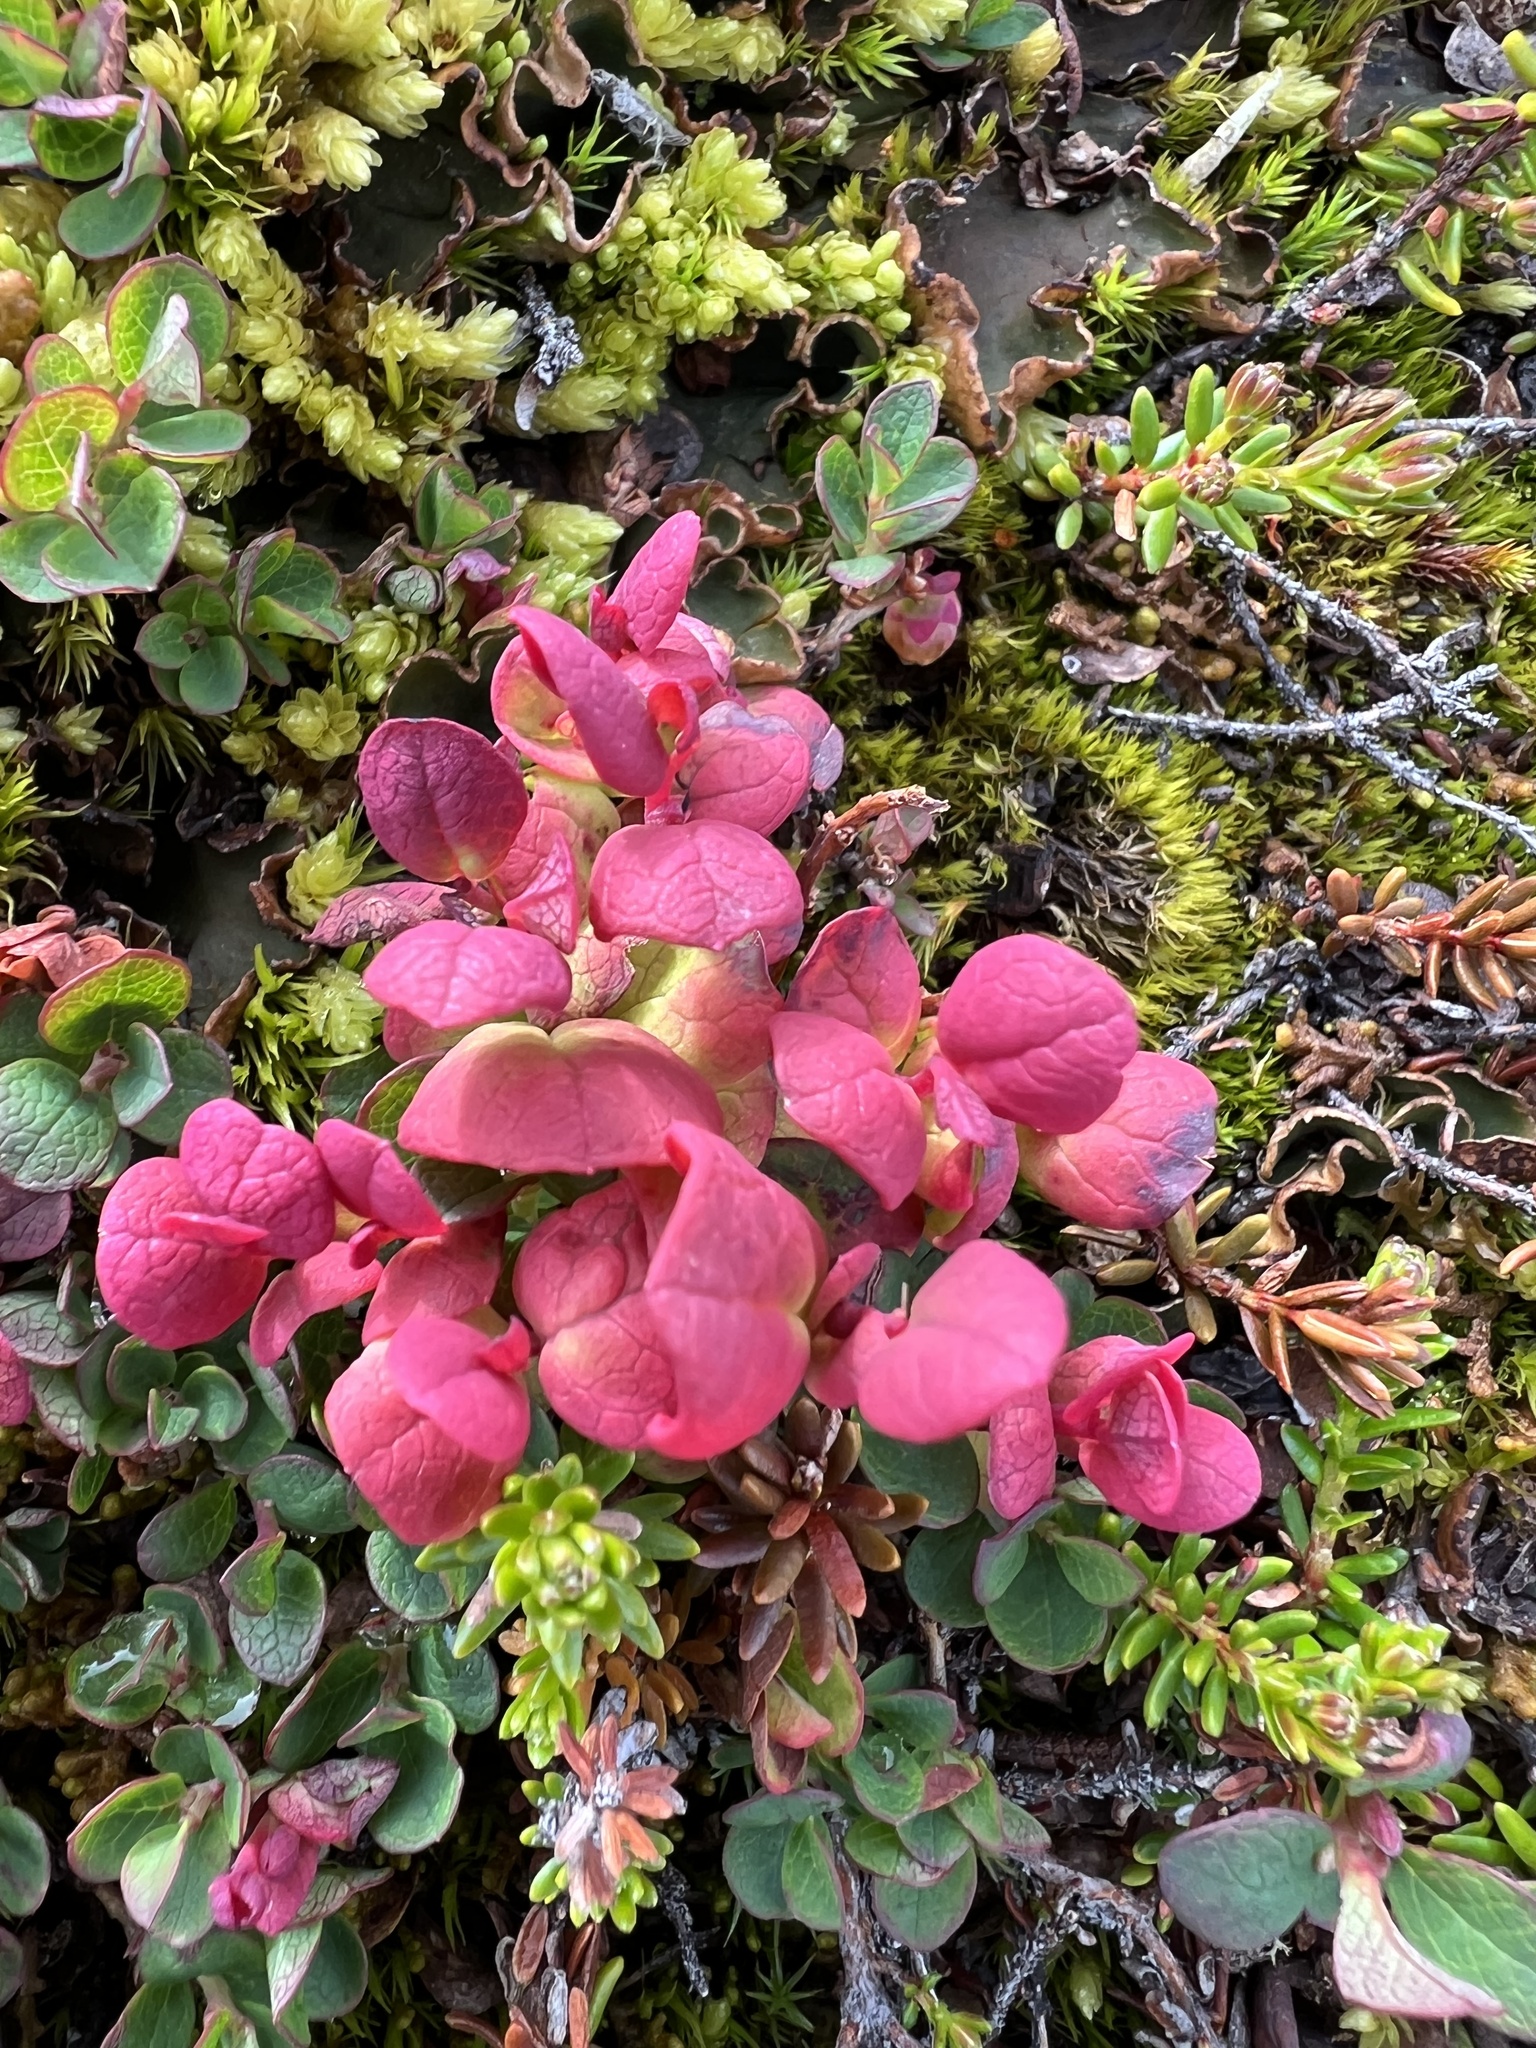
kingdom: Plantae
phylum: Tracheophyta
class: Magnoliopsida
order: Ericales
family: Ericaceae
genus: Vaccinium
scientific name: Vaccinium uliginosum
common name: Bog bilberry
